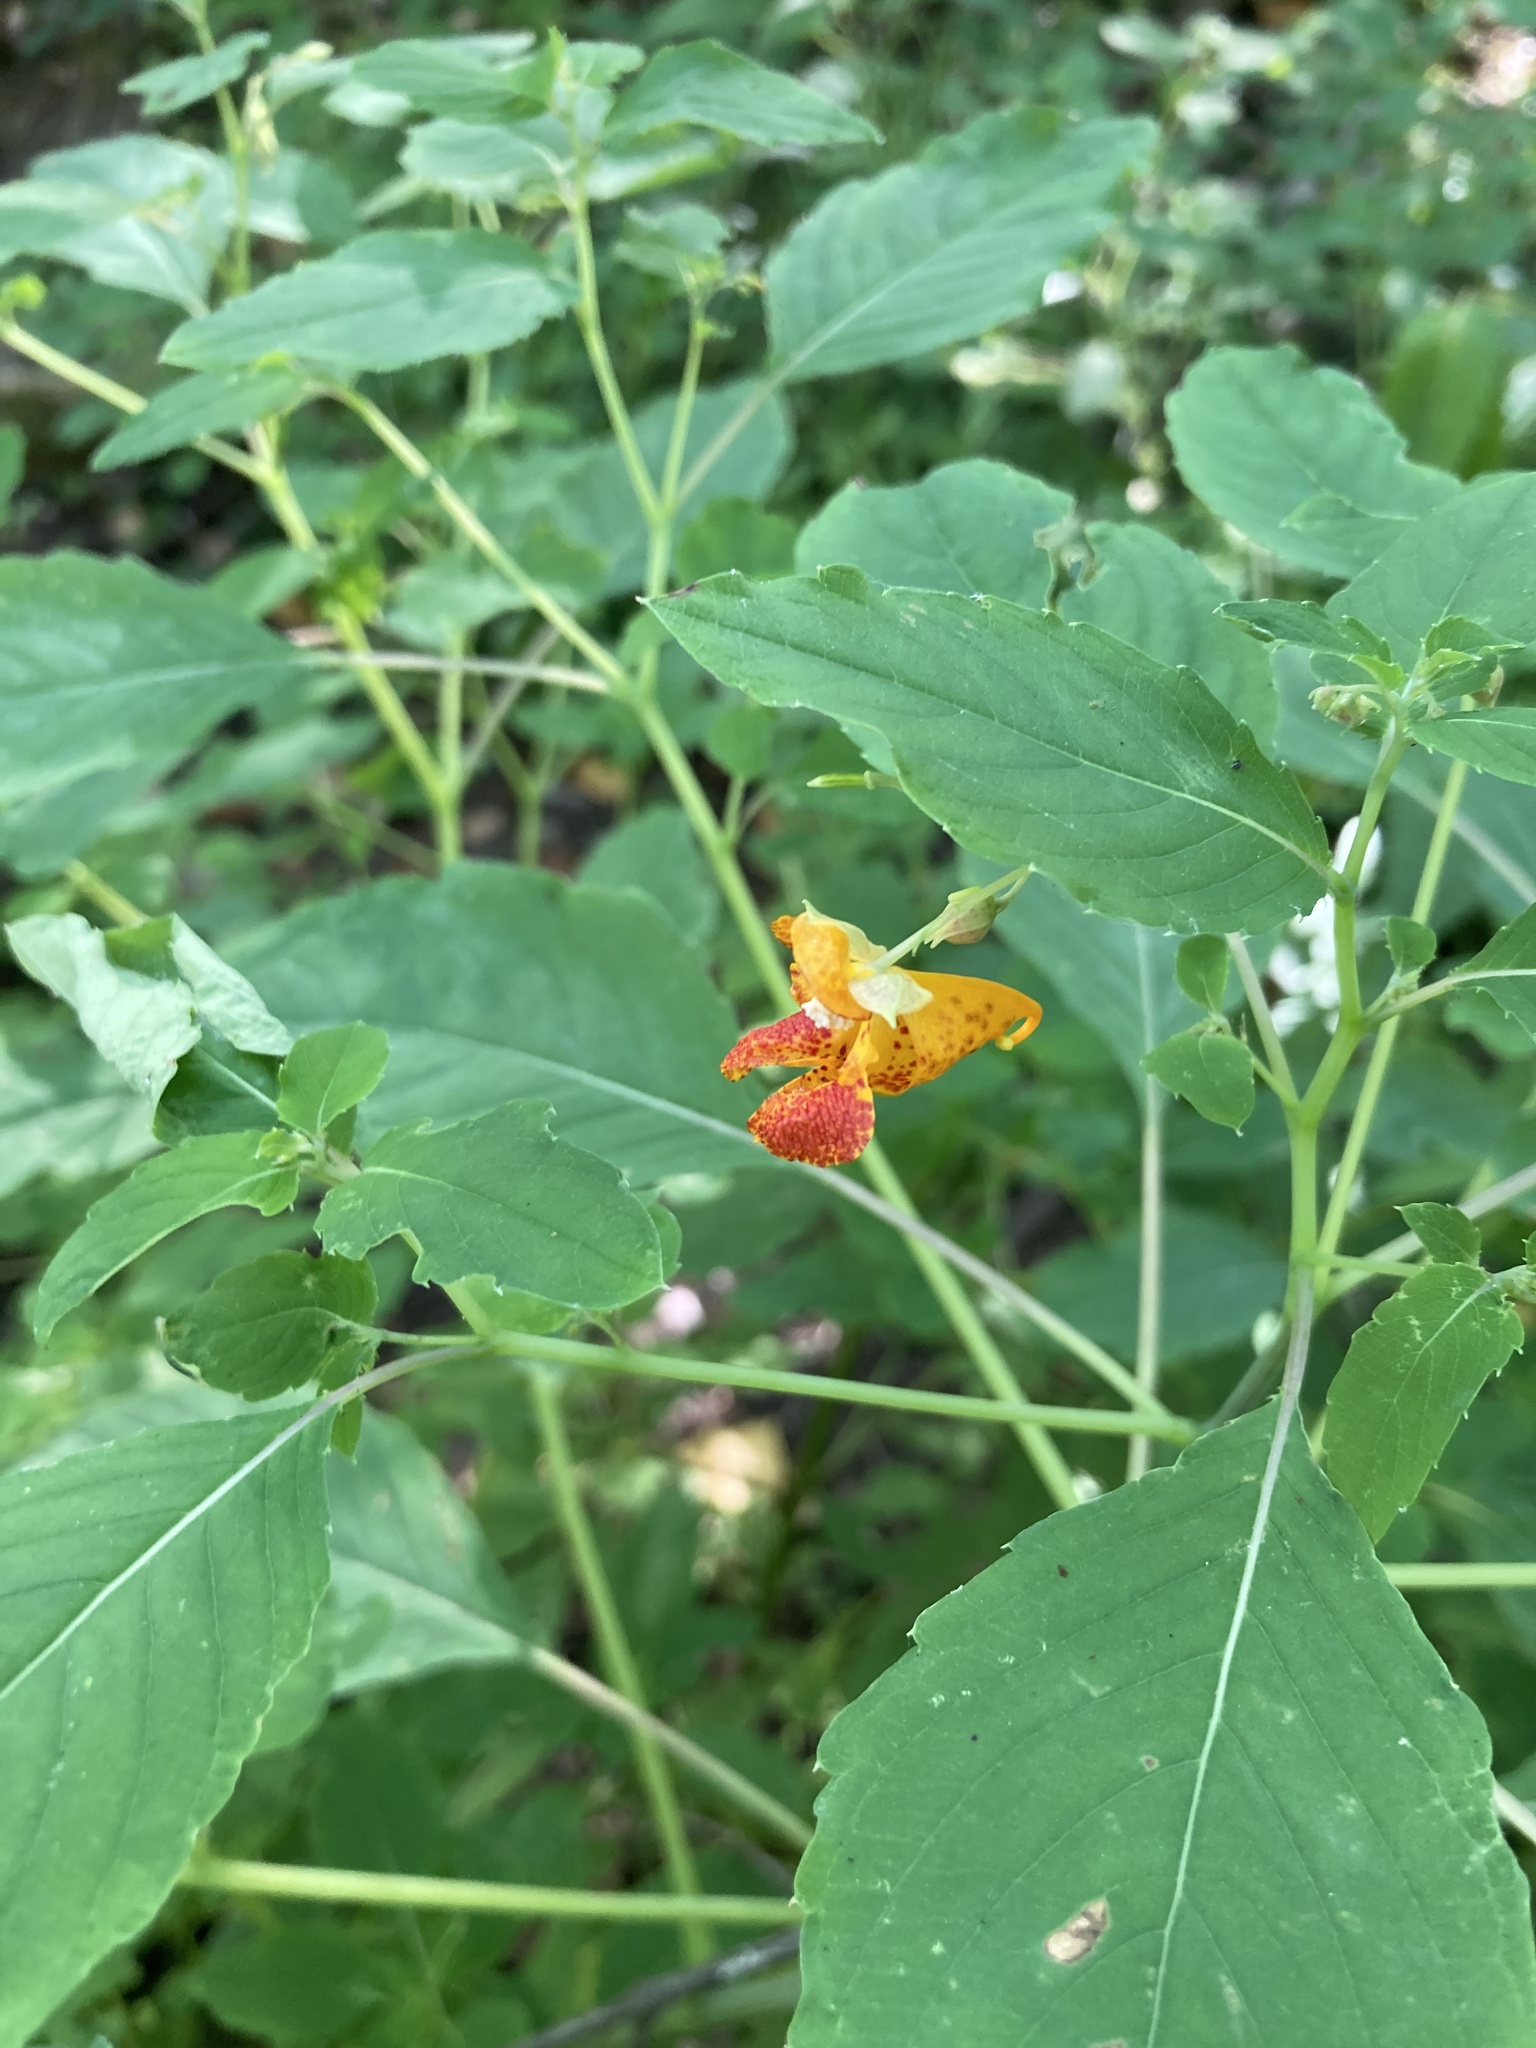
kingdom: Plantae
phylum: Tracheophyta
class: Magnoliopsida
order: Ericales
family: Balsaminaceae
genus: Impatiens
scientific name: Impatiens capensis
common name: Orange balsam
